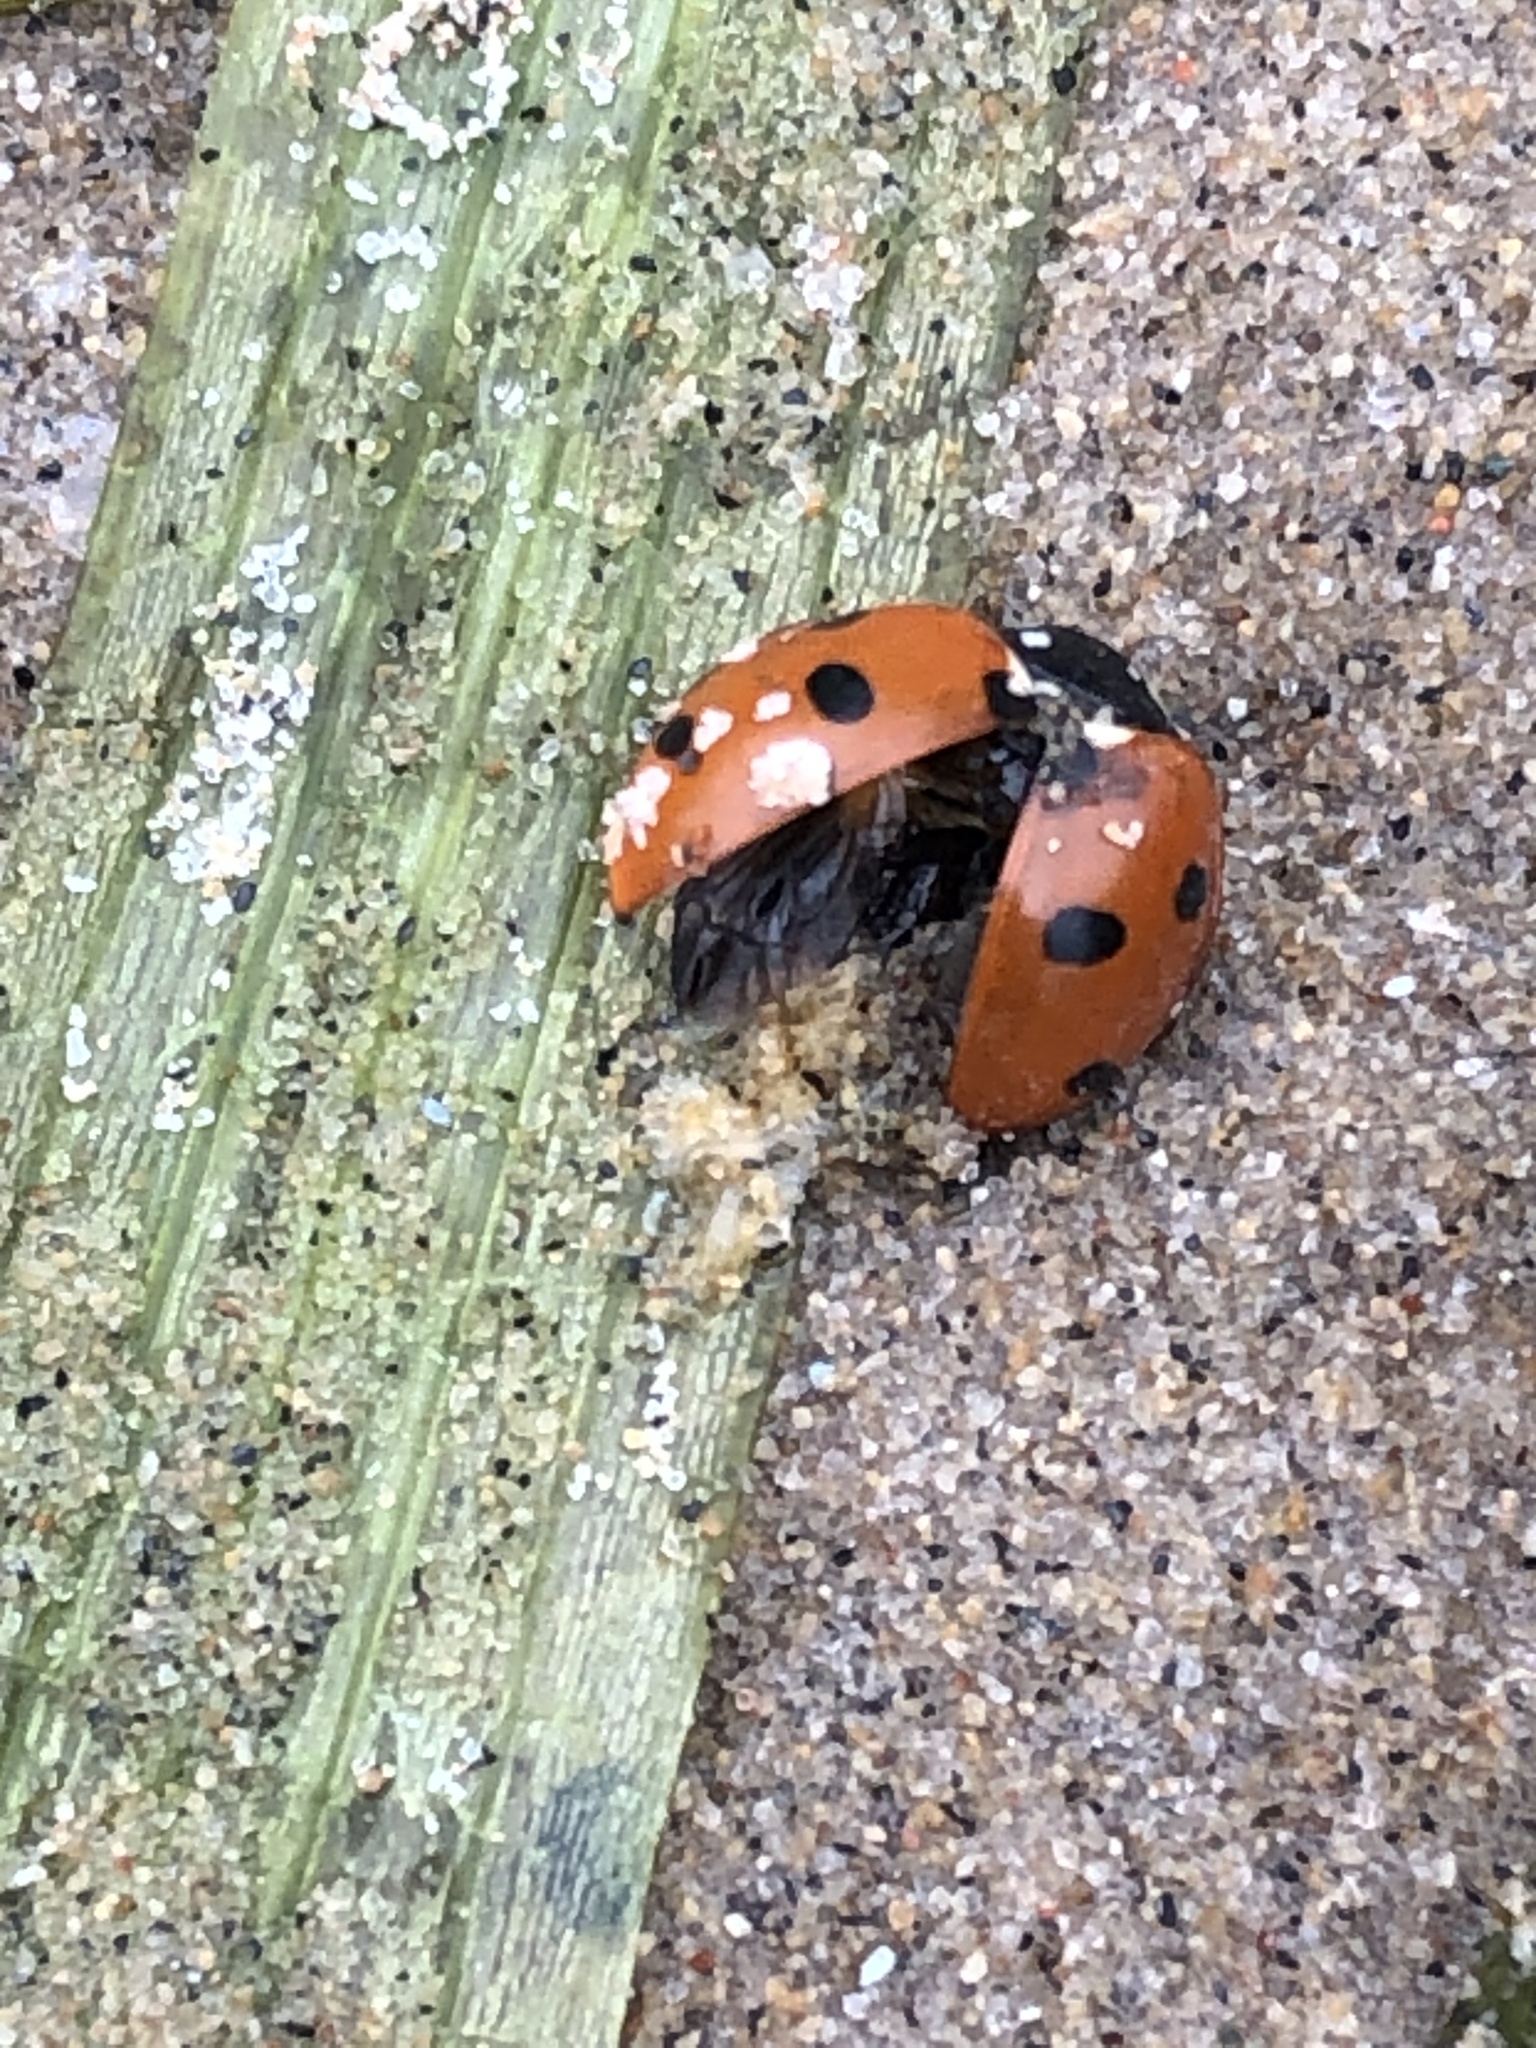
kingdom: Animalia
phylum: Arthropoda
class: Insecta
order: Coleoptera
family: Coccinellidae
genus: Coccinella
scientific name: Coccinella septempunctata
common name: Sevenspotted lady beetle
